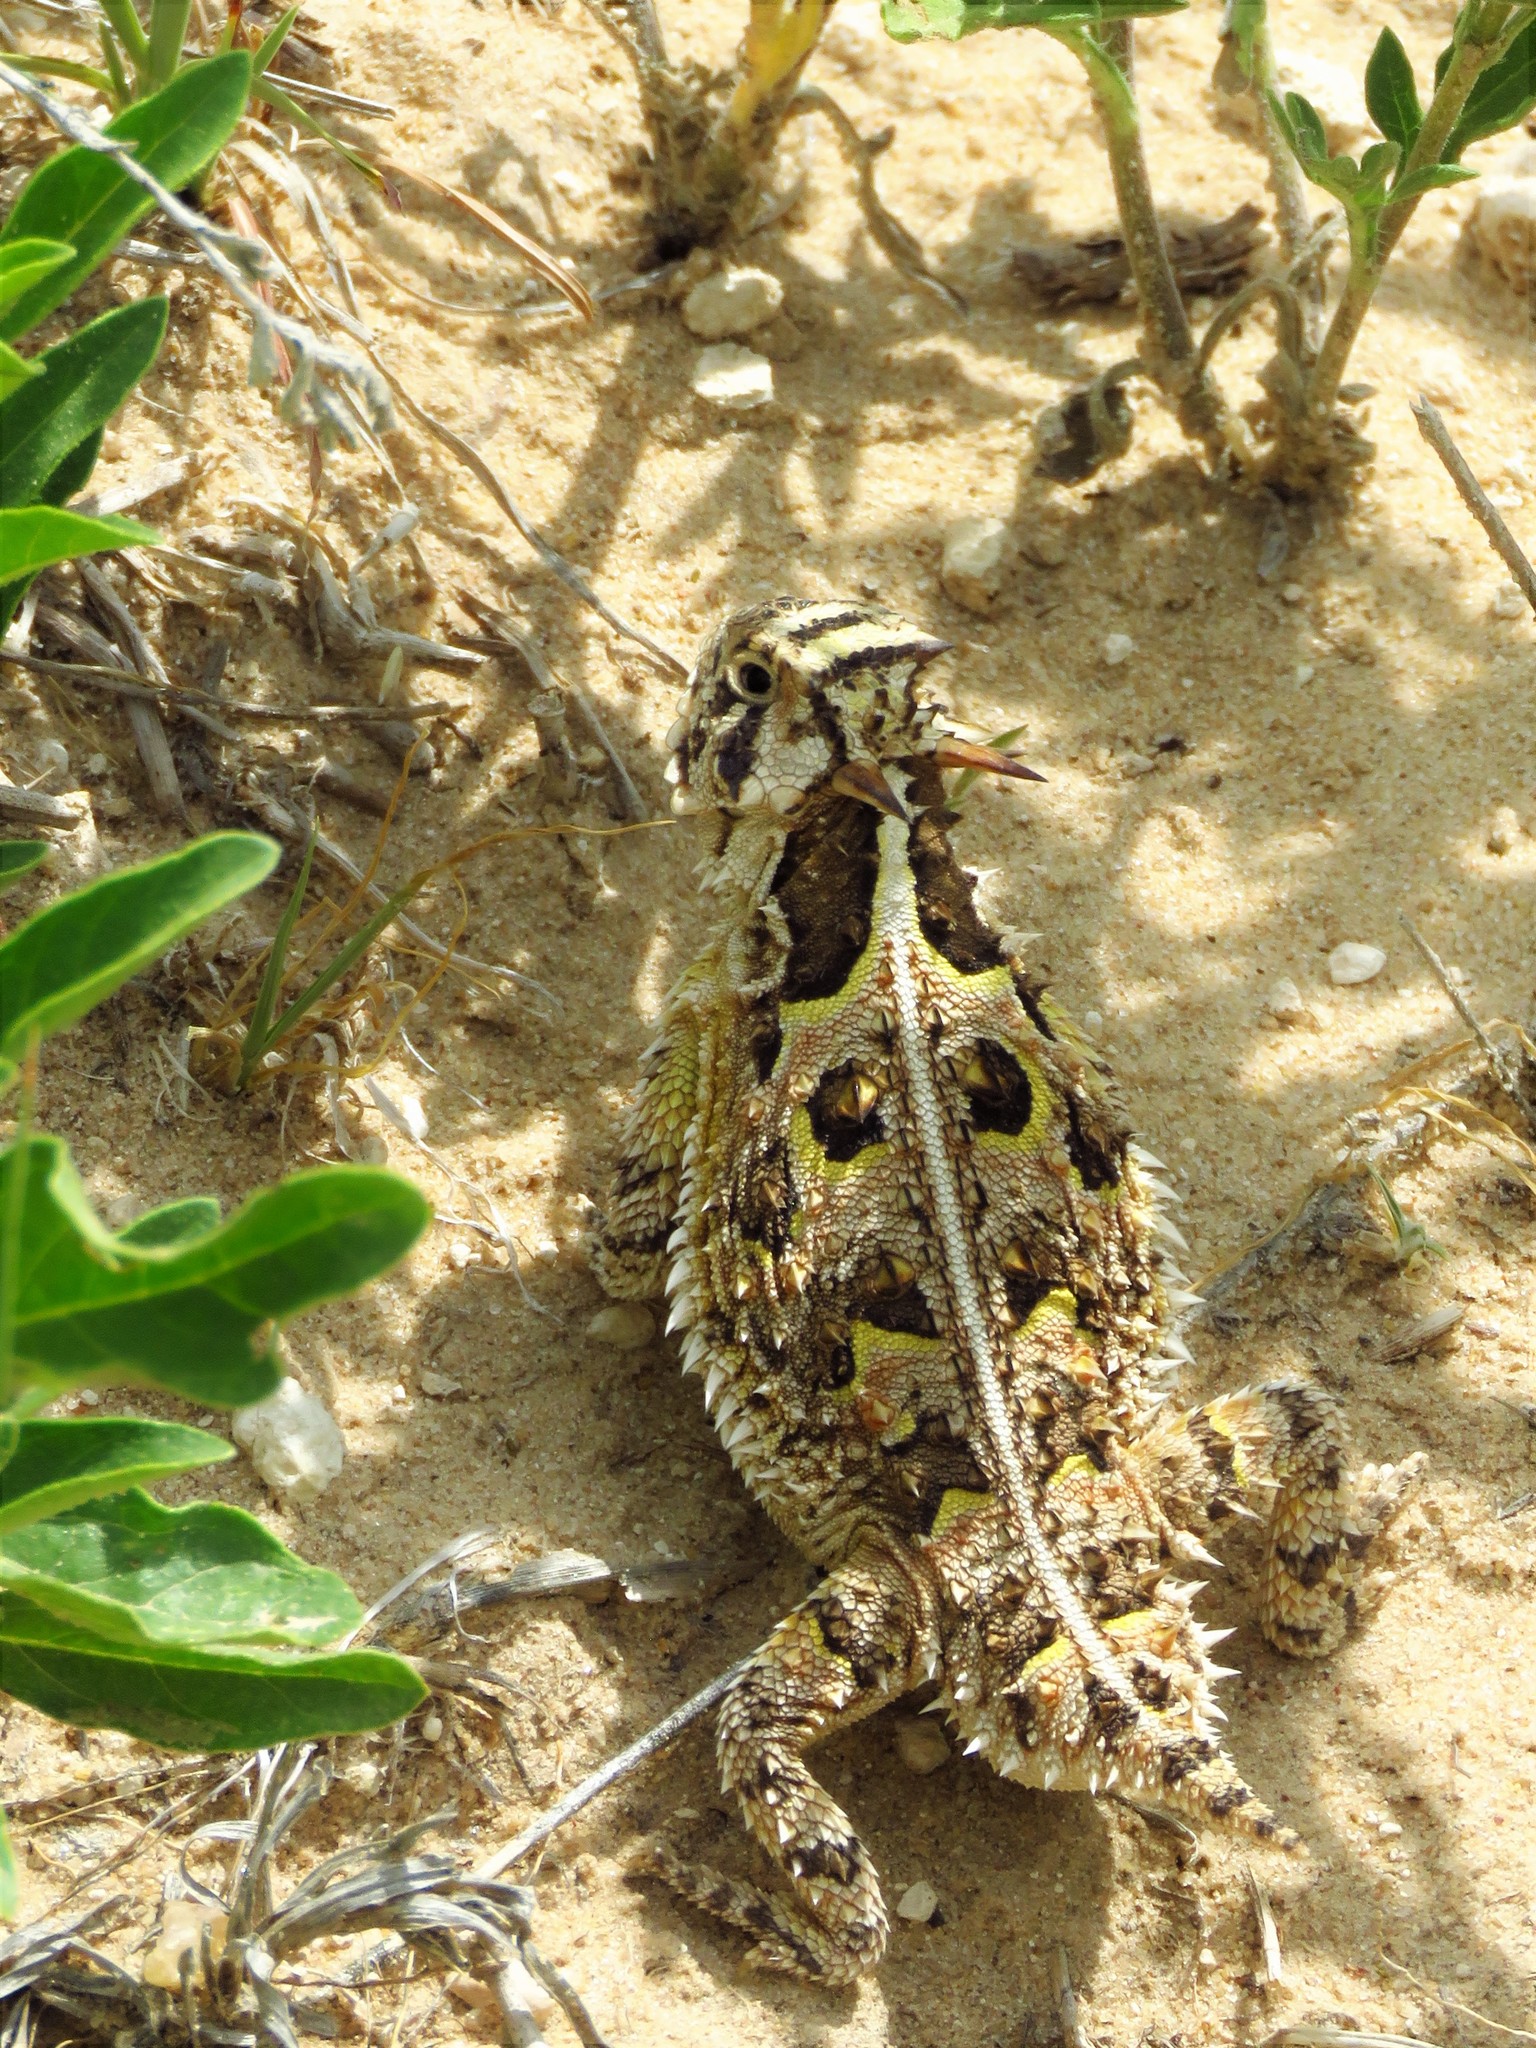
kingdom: Animalia
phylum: Chordata
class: Squamata
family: Phrynosomatidae
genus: Phrynosoma
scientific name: Phrynosoma cornutum
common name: Texas horned lizard
